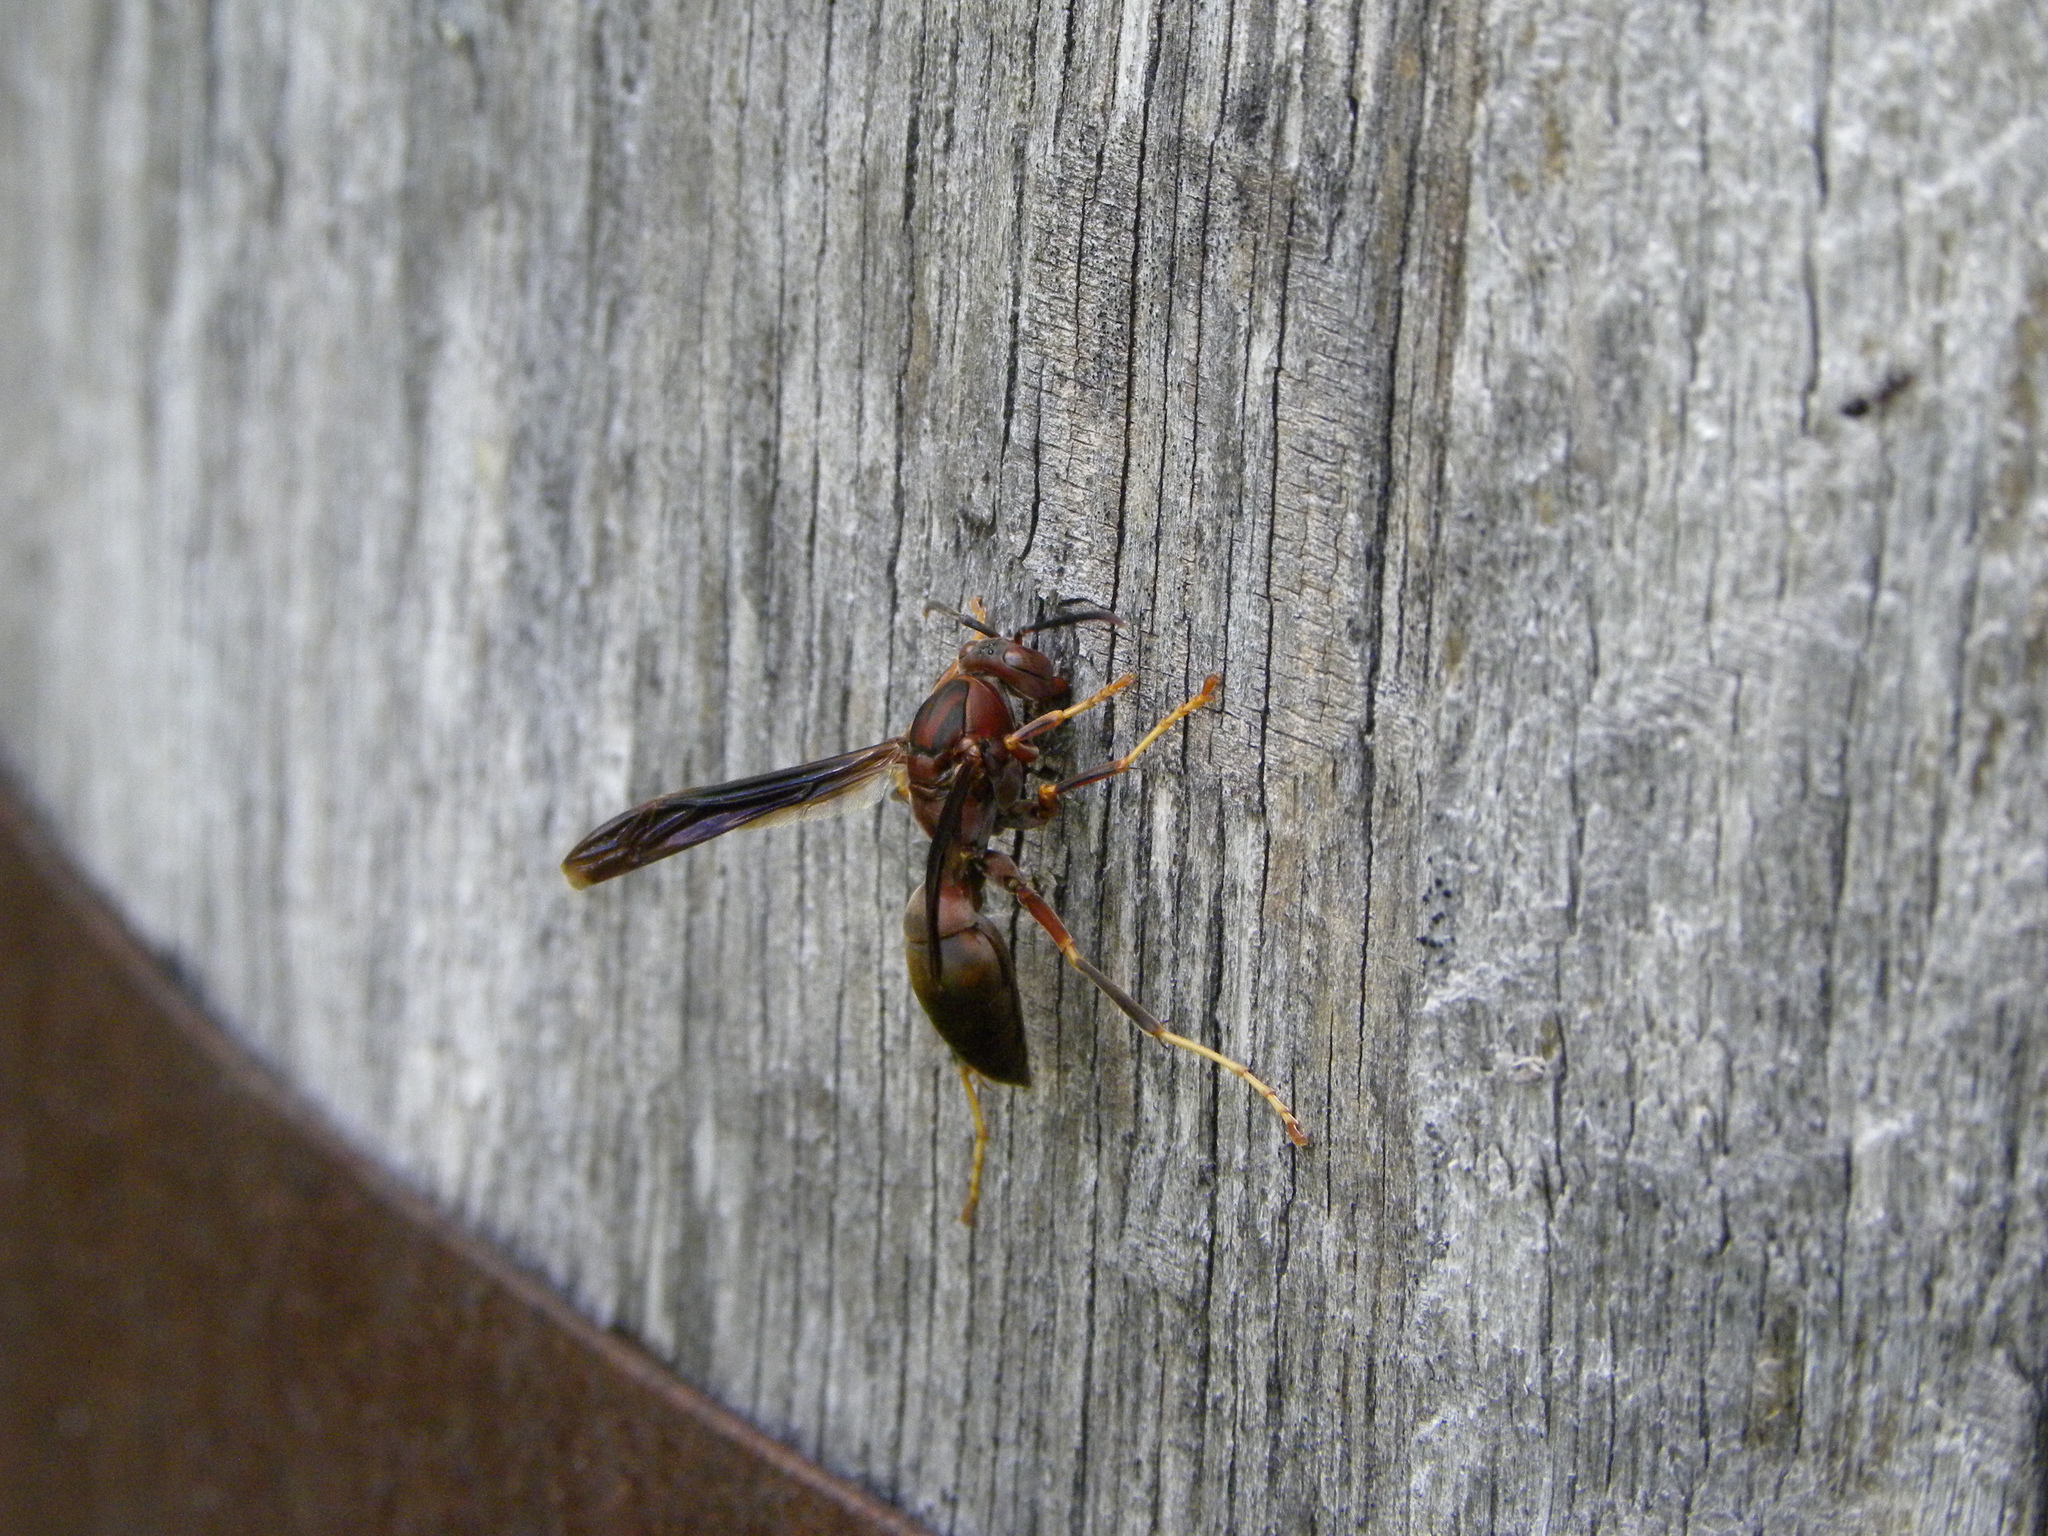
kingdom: Animalia
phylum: Arthropoda
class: Insecta
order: Hymenoptera
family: Eumenidae
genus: Polistes
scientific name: Polistes metricus
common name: Metric paper wasp
